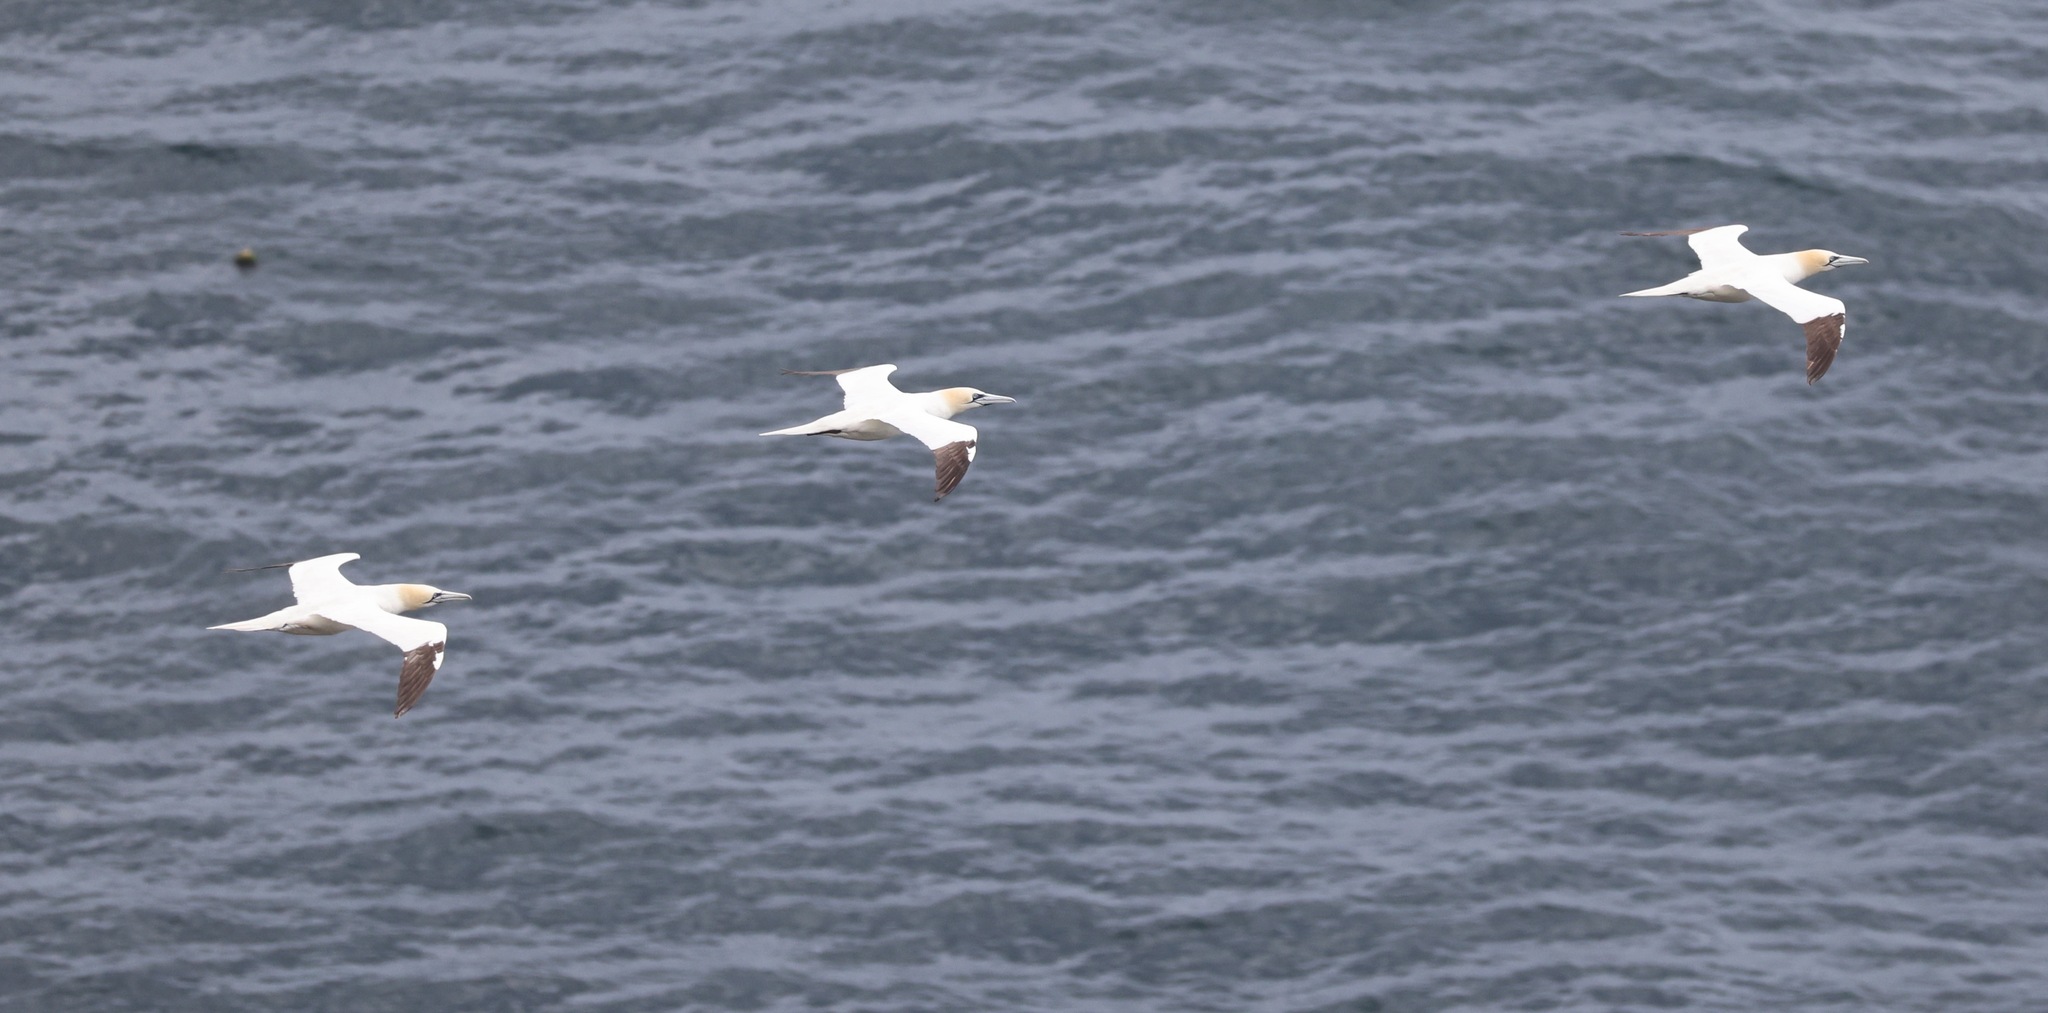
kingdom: Animalia
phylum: Chordata
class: Aves
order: Suliformes
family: Sulidae
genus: Morus
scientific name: Morus bassanus
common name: Northern gannet
